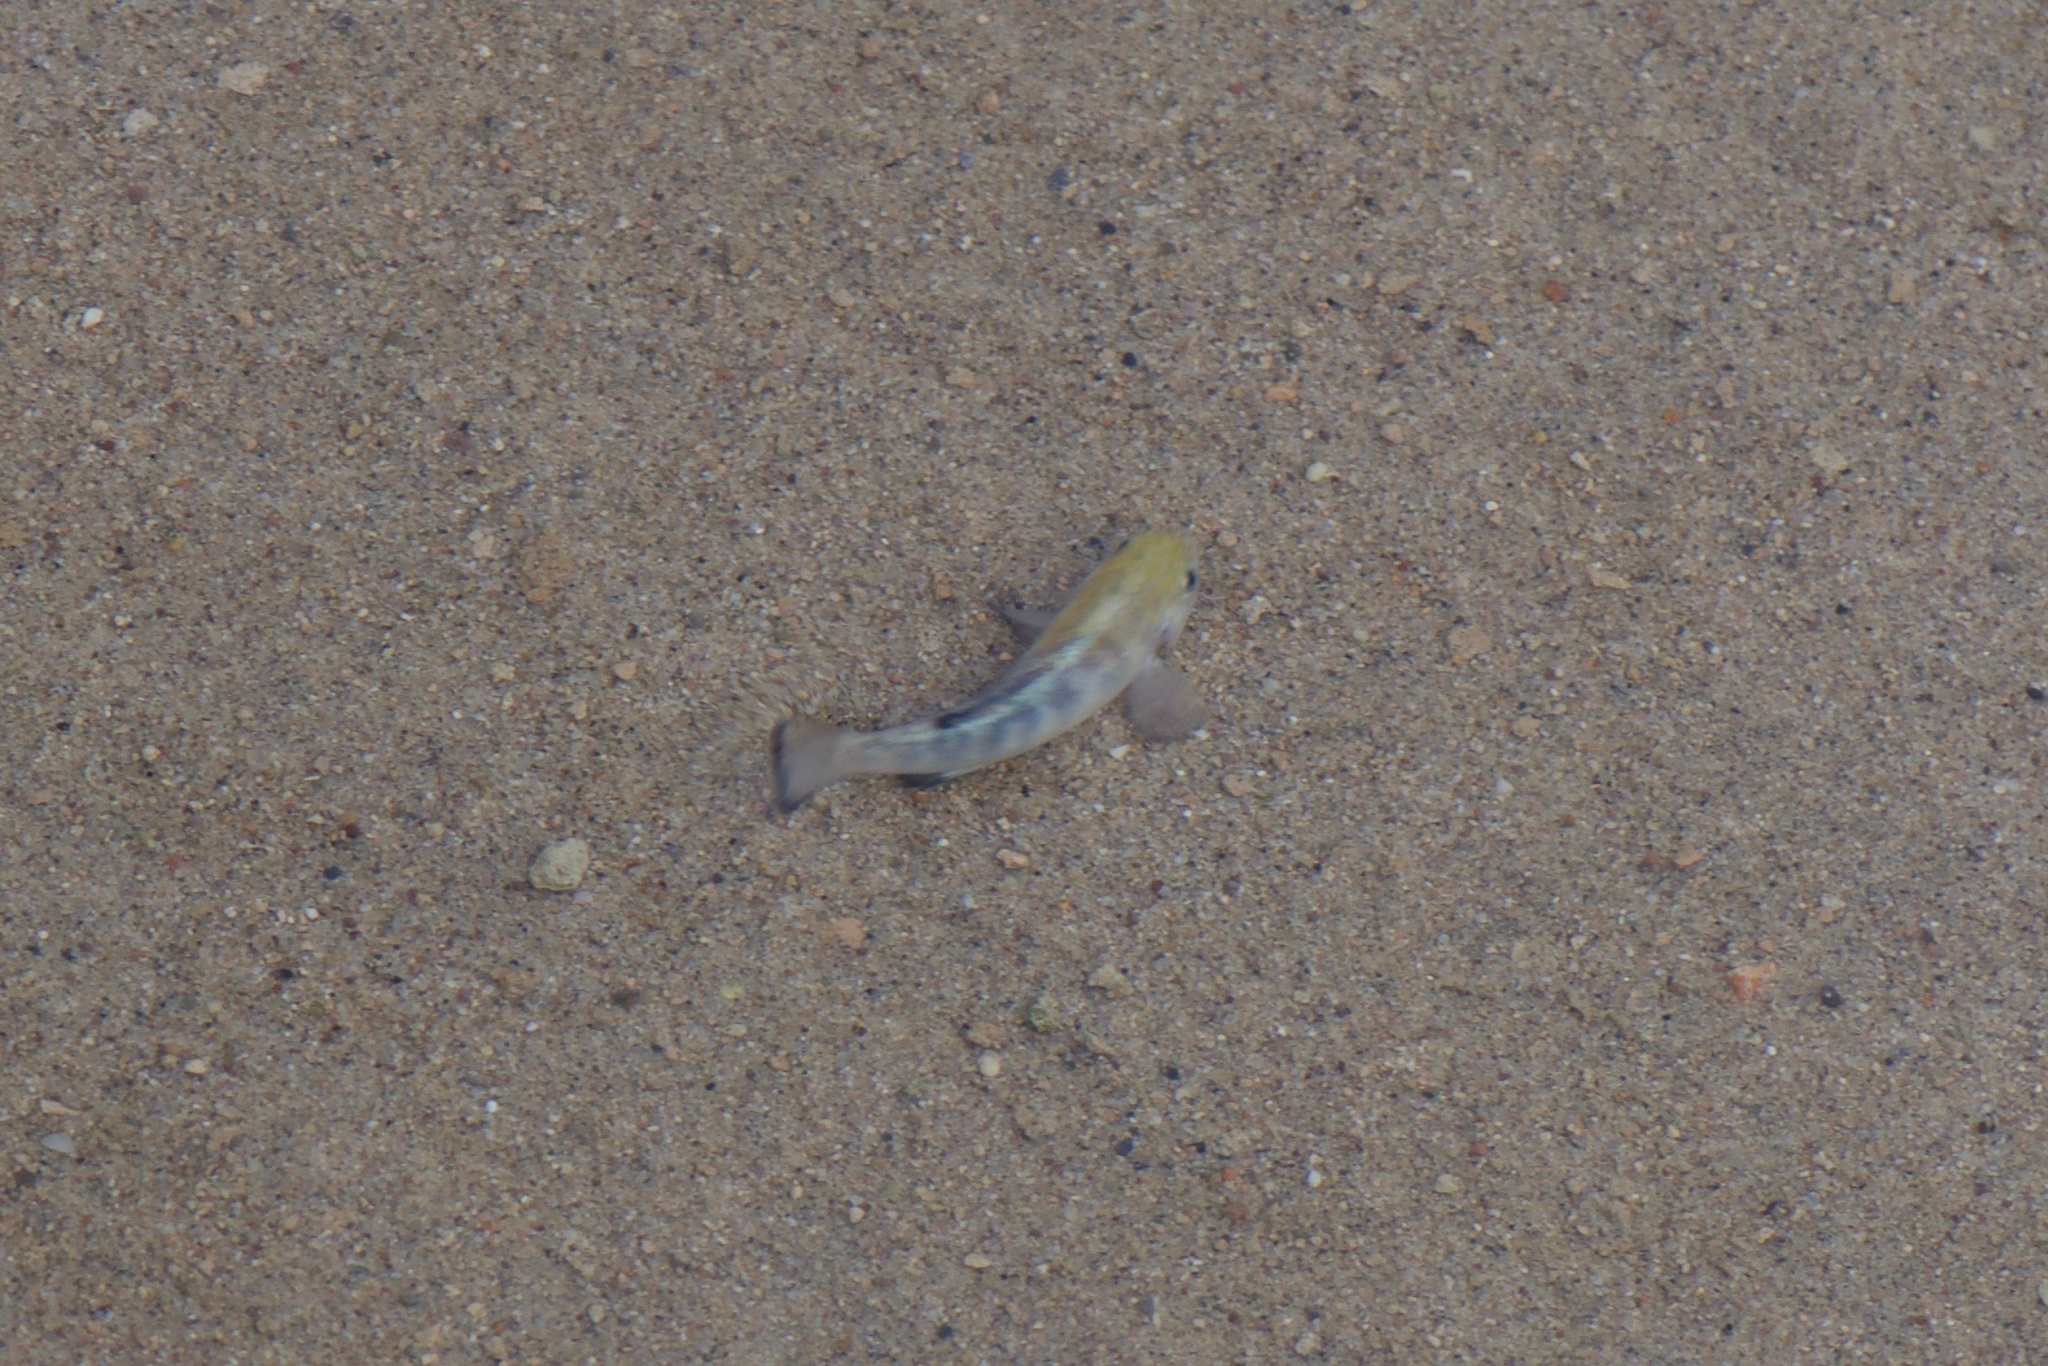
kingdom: Animalia
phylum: Chordata
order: Cyprinodontiformes
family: Cyprinodontidae
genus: Cyprinodon
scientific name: Cyprinodon salinus
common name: Cottonball marsh pupfish
